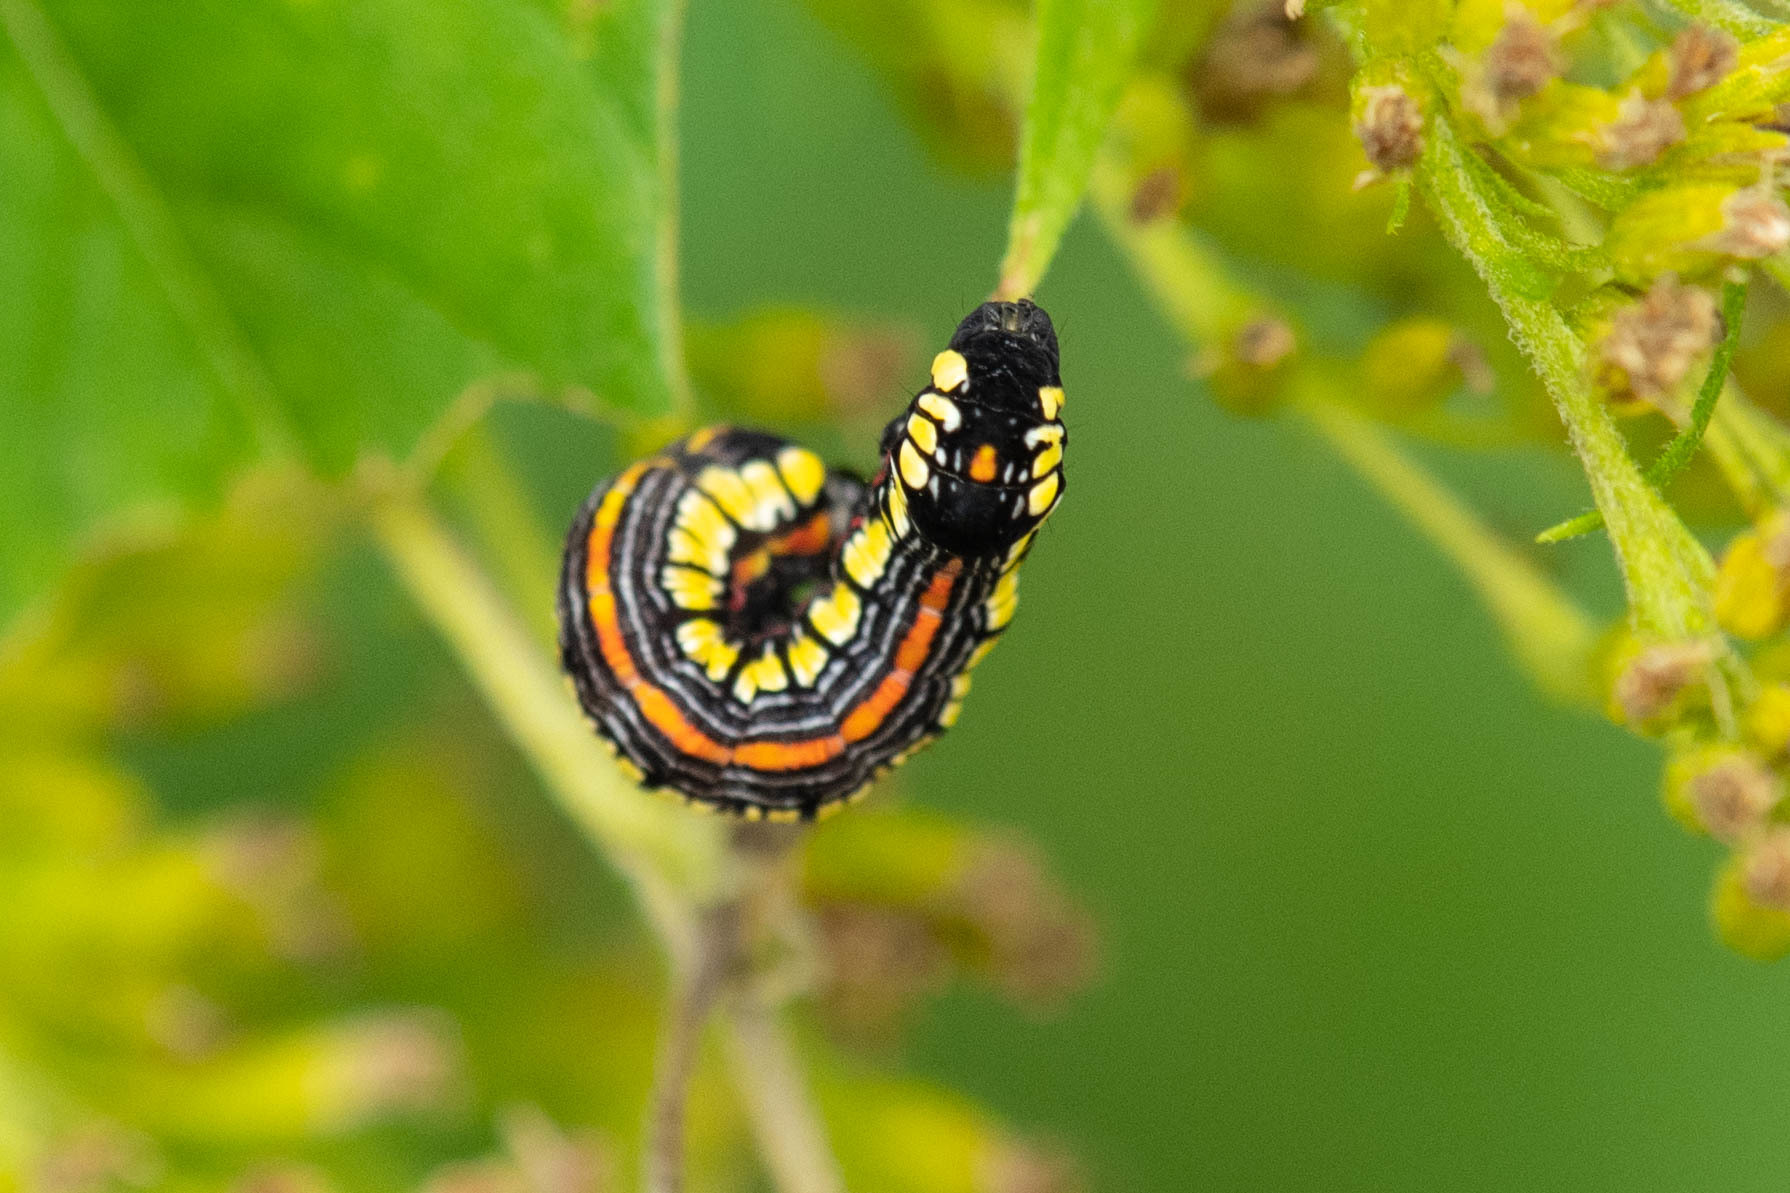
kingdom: Animalia
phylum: Arthropoda
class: Insecta
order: Lepidoptera
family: Noctuidae
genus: Cucullia
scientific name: Cucullia convexipennis
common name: Brown-hooded owlet
